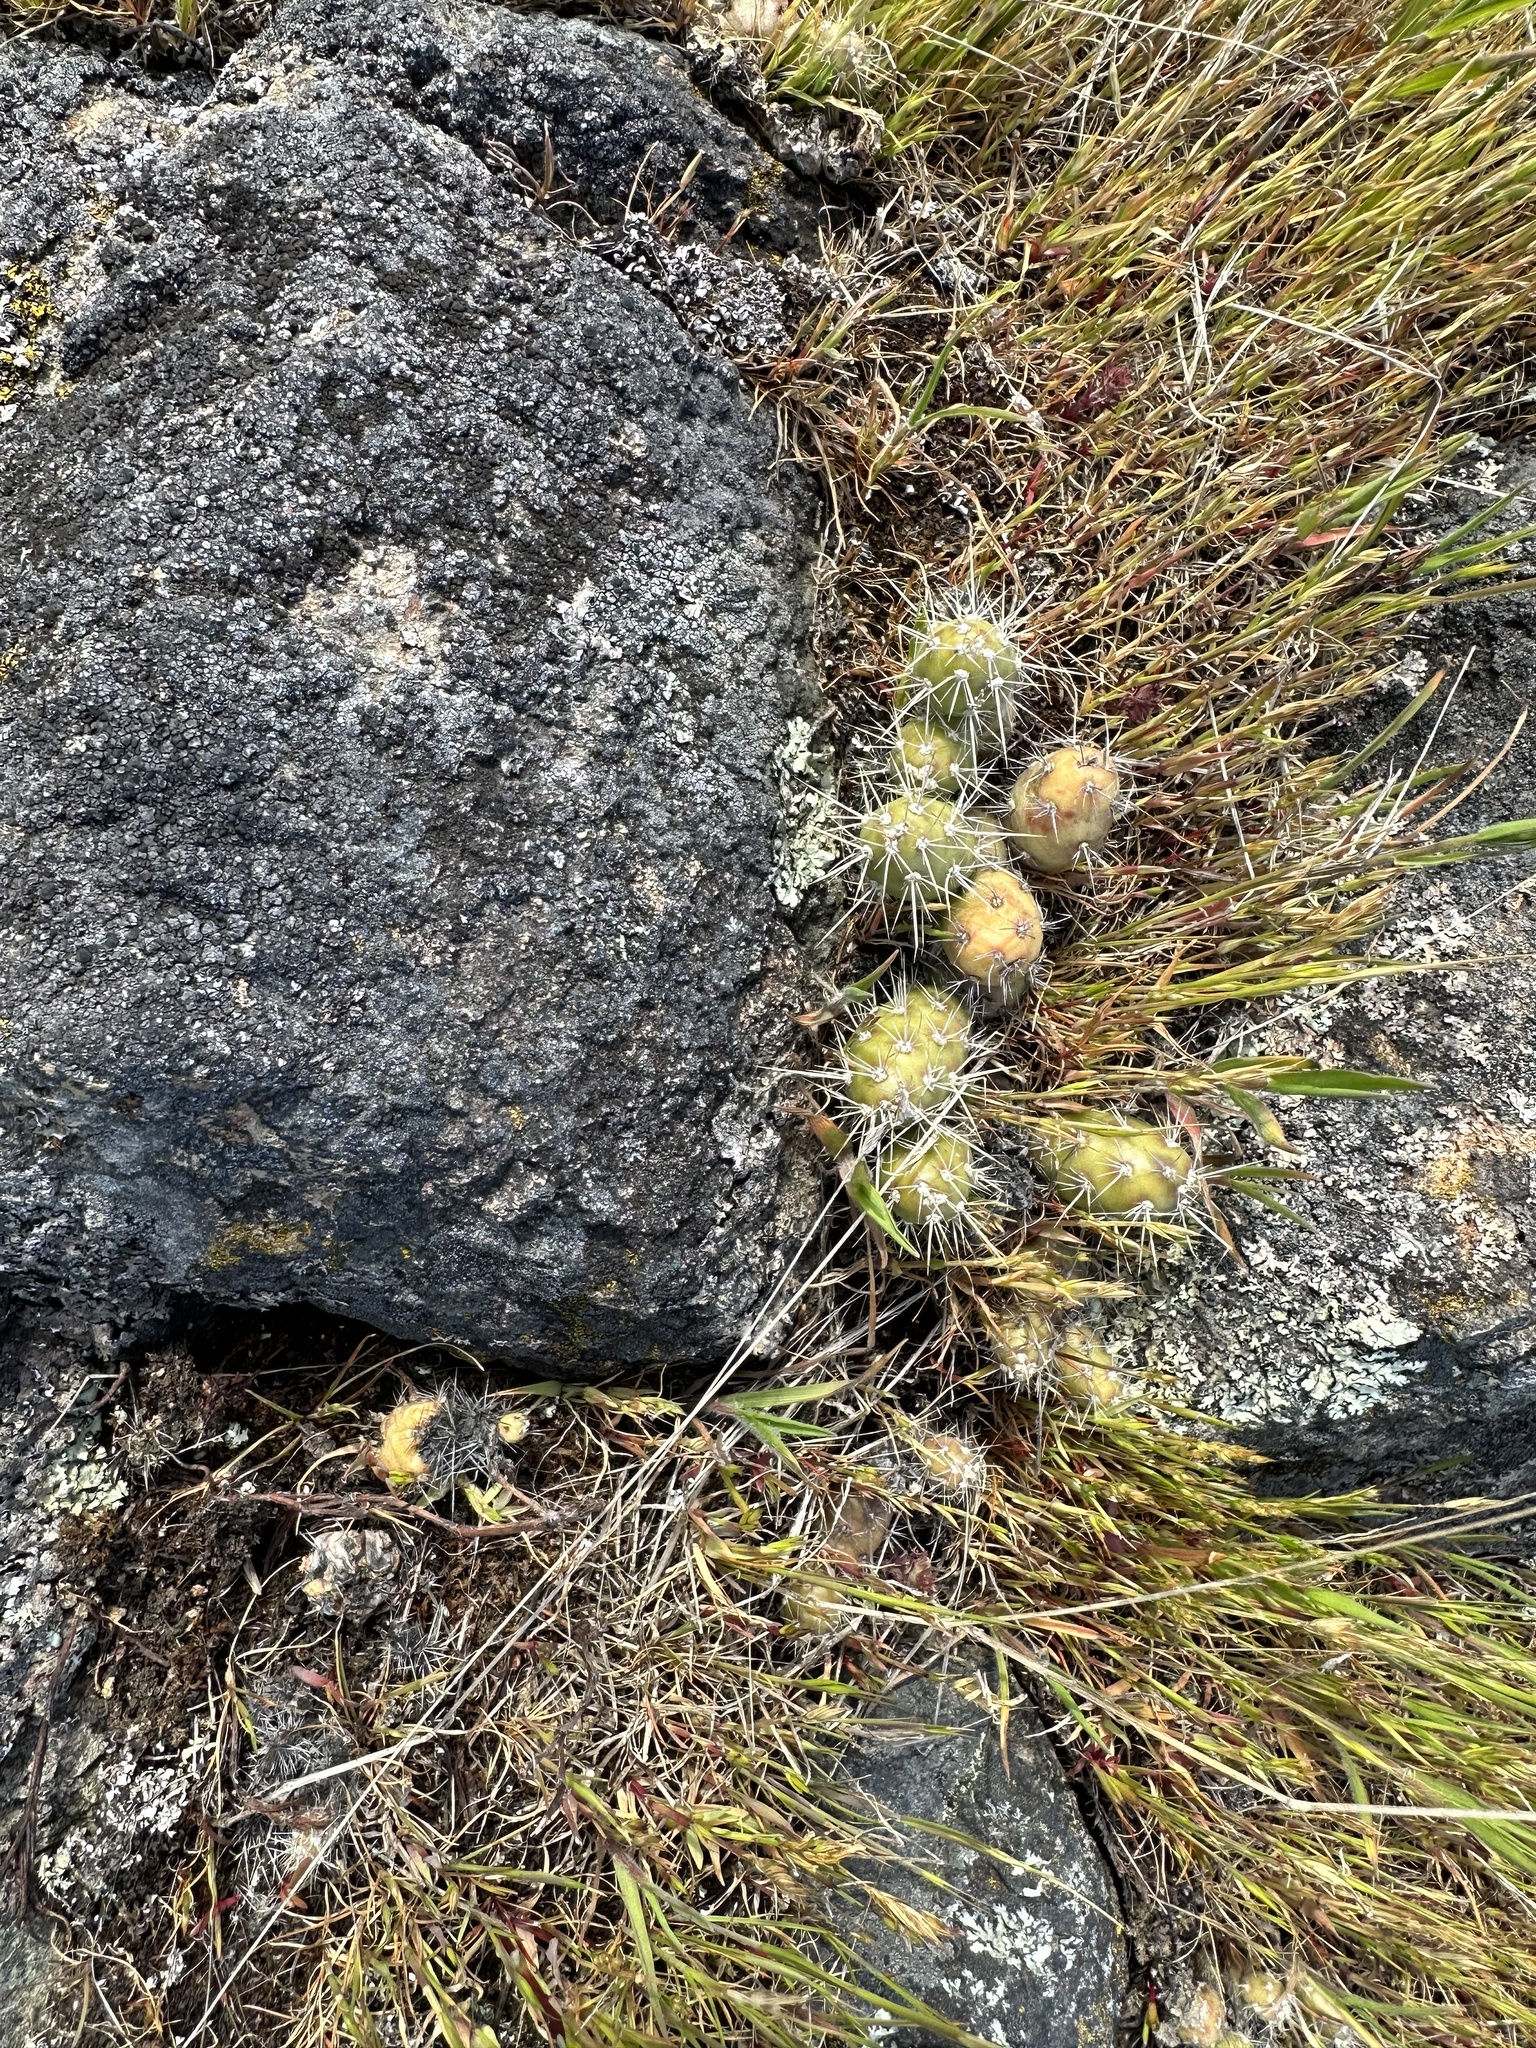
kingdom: Plantae
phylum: Tracheophyta
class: Magnoliopsida
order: Caryophyllales
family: Cactaceae
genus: Opuntia
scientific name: Opuntia fragilis
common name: Brittle cactus
